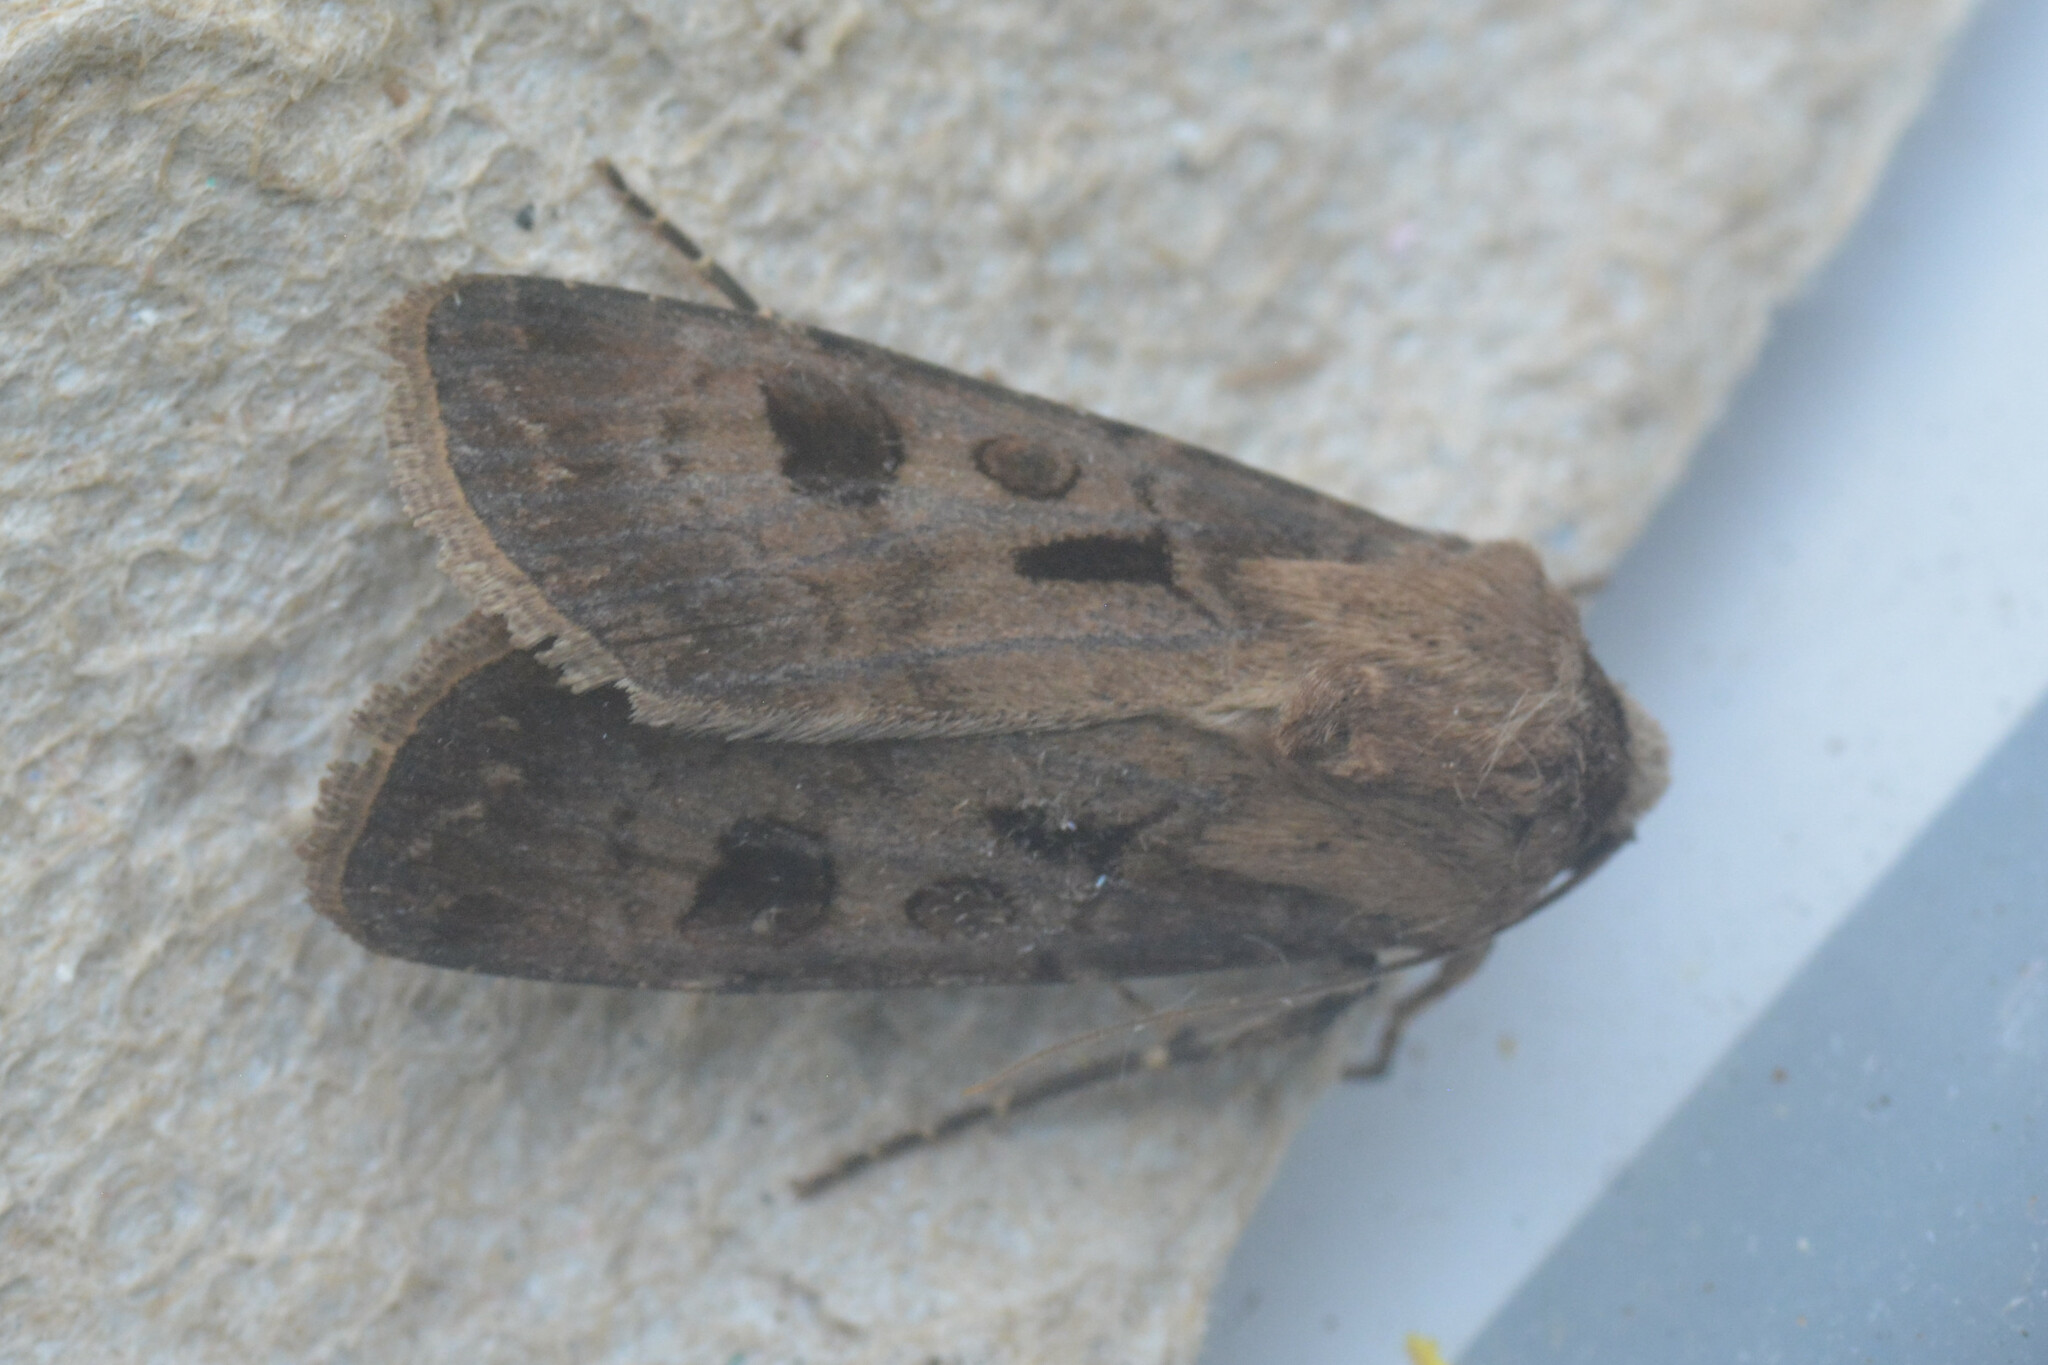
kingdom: Animalia
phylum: Arthropoda
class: Insecta
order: Lepidoptera
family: Noctuidae
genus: Agrotis
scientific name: Agrotis exclamationis
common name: Heart and dart
